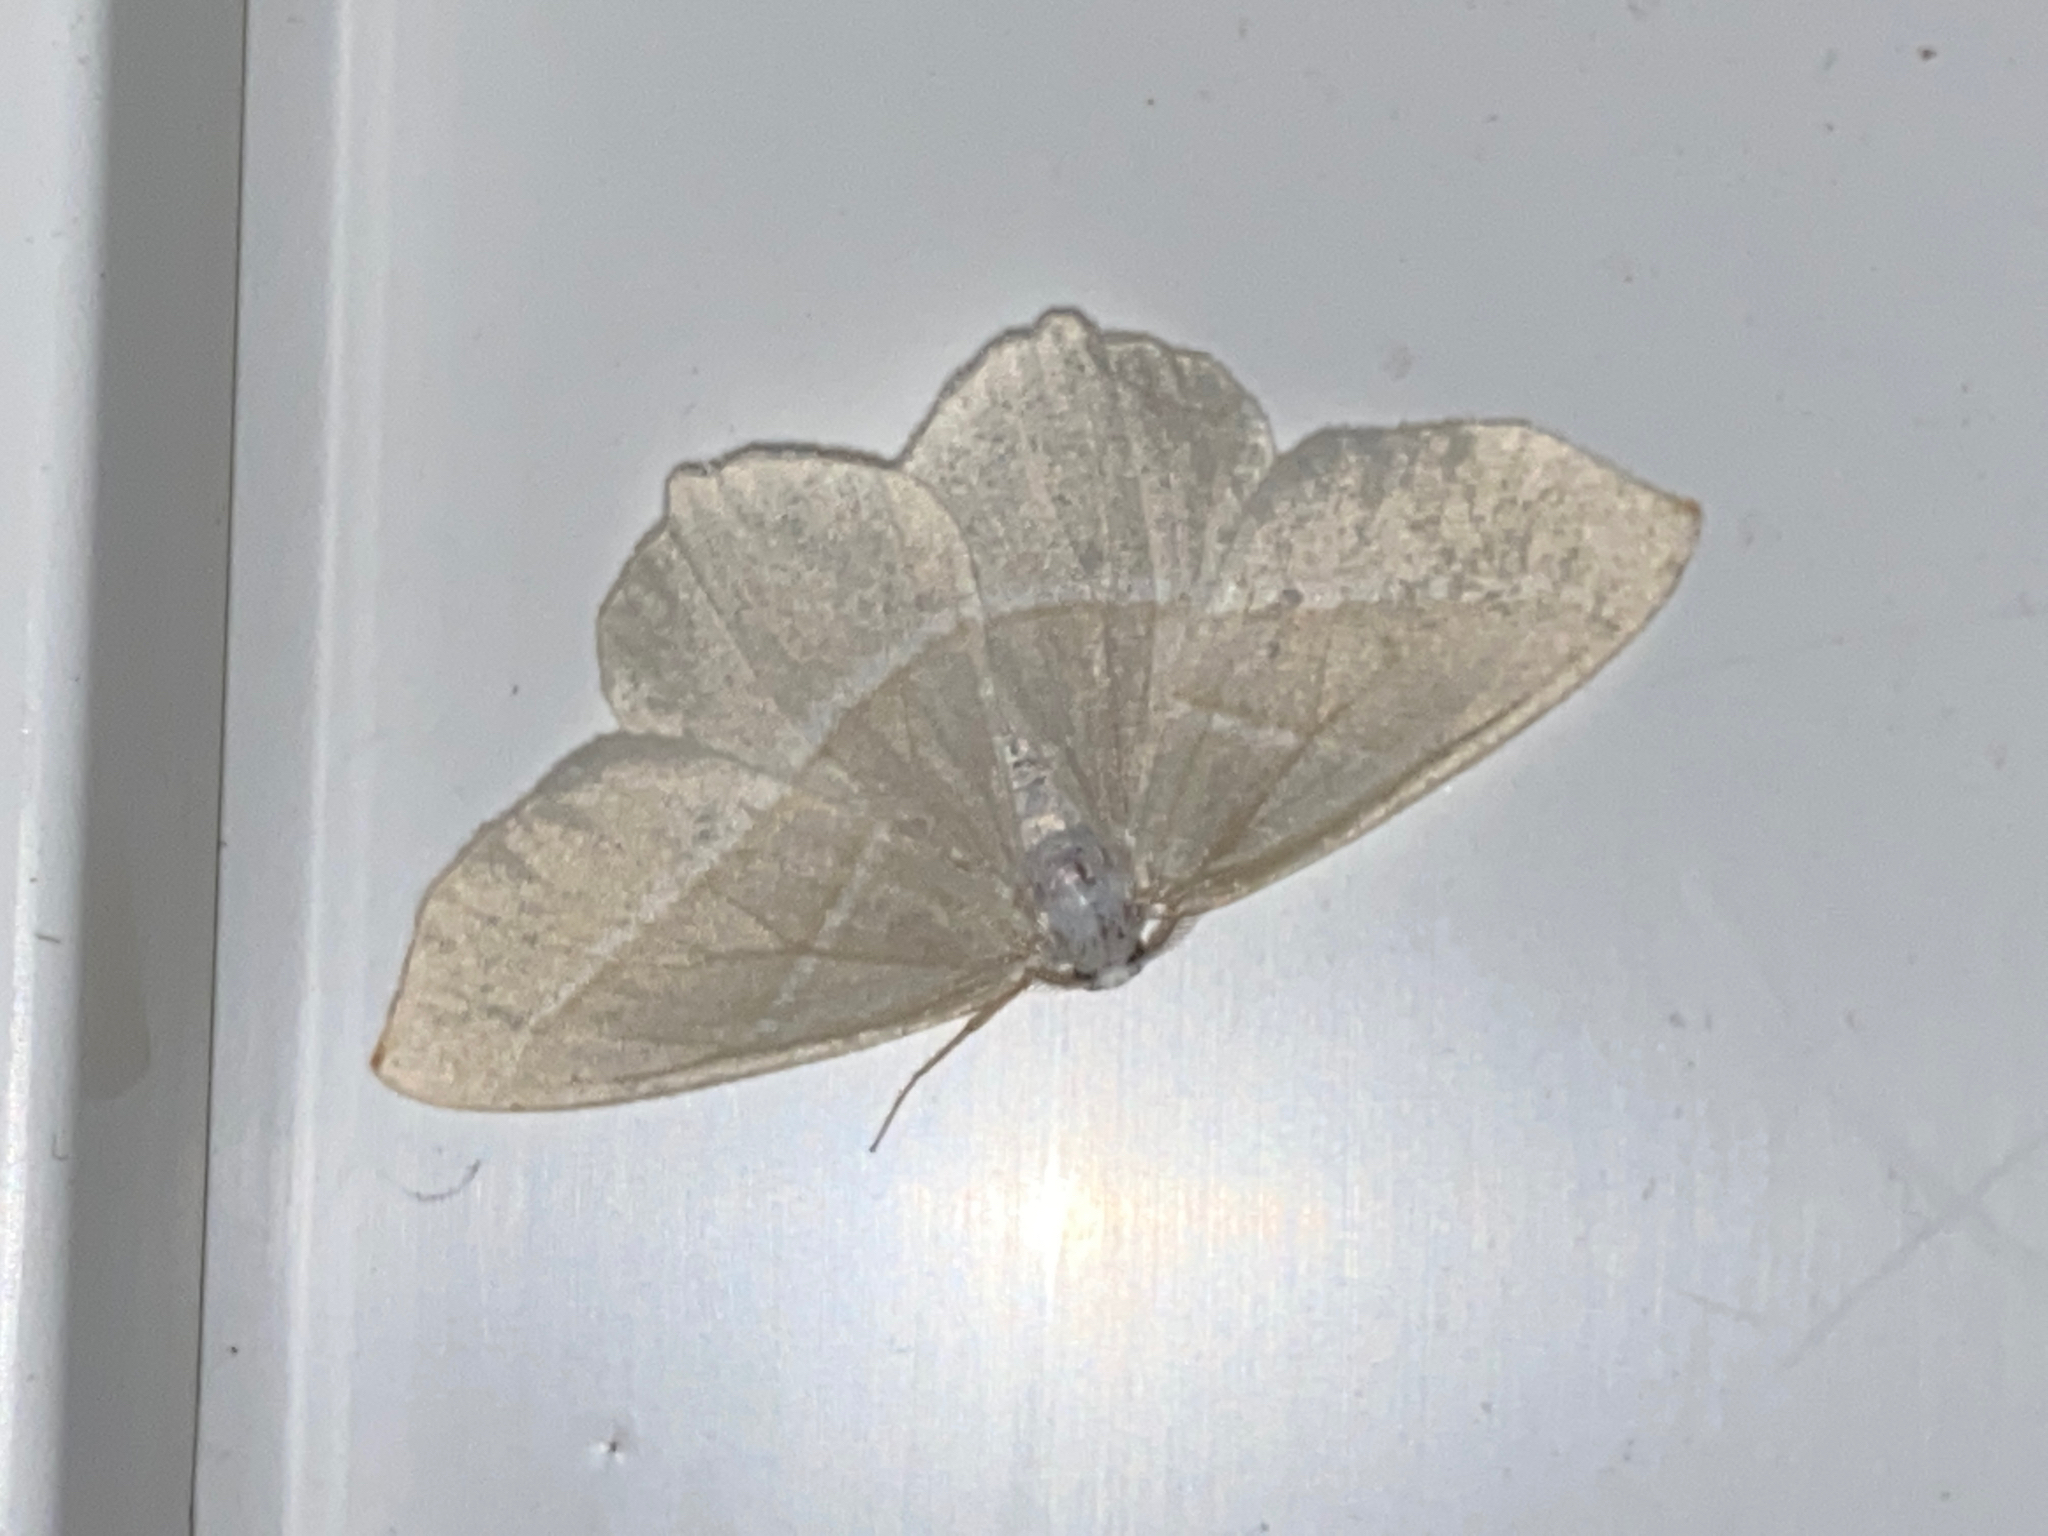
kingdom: Animalia
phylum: Arthropoda
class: Insecta
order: Lepidoptera
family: Geometridae
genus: Campaea
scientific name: Campaea margaritaria
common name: Light emerald
